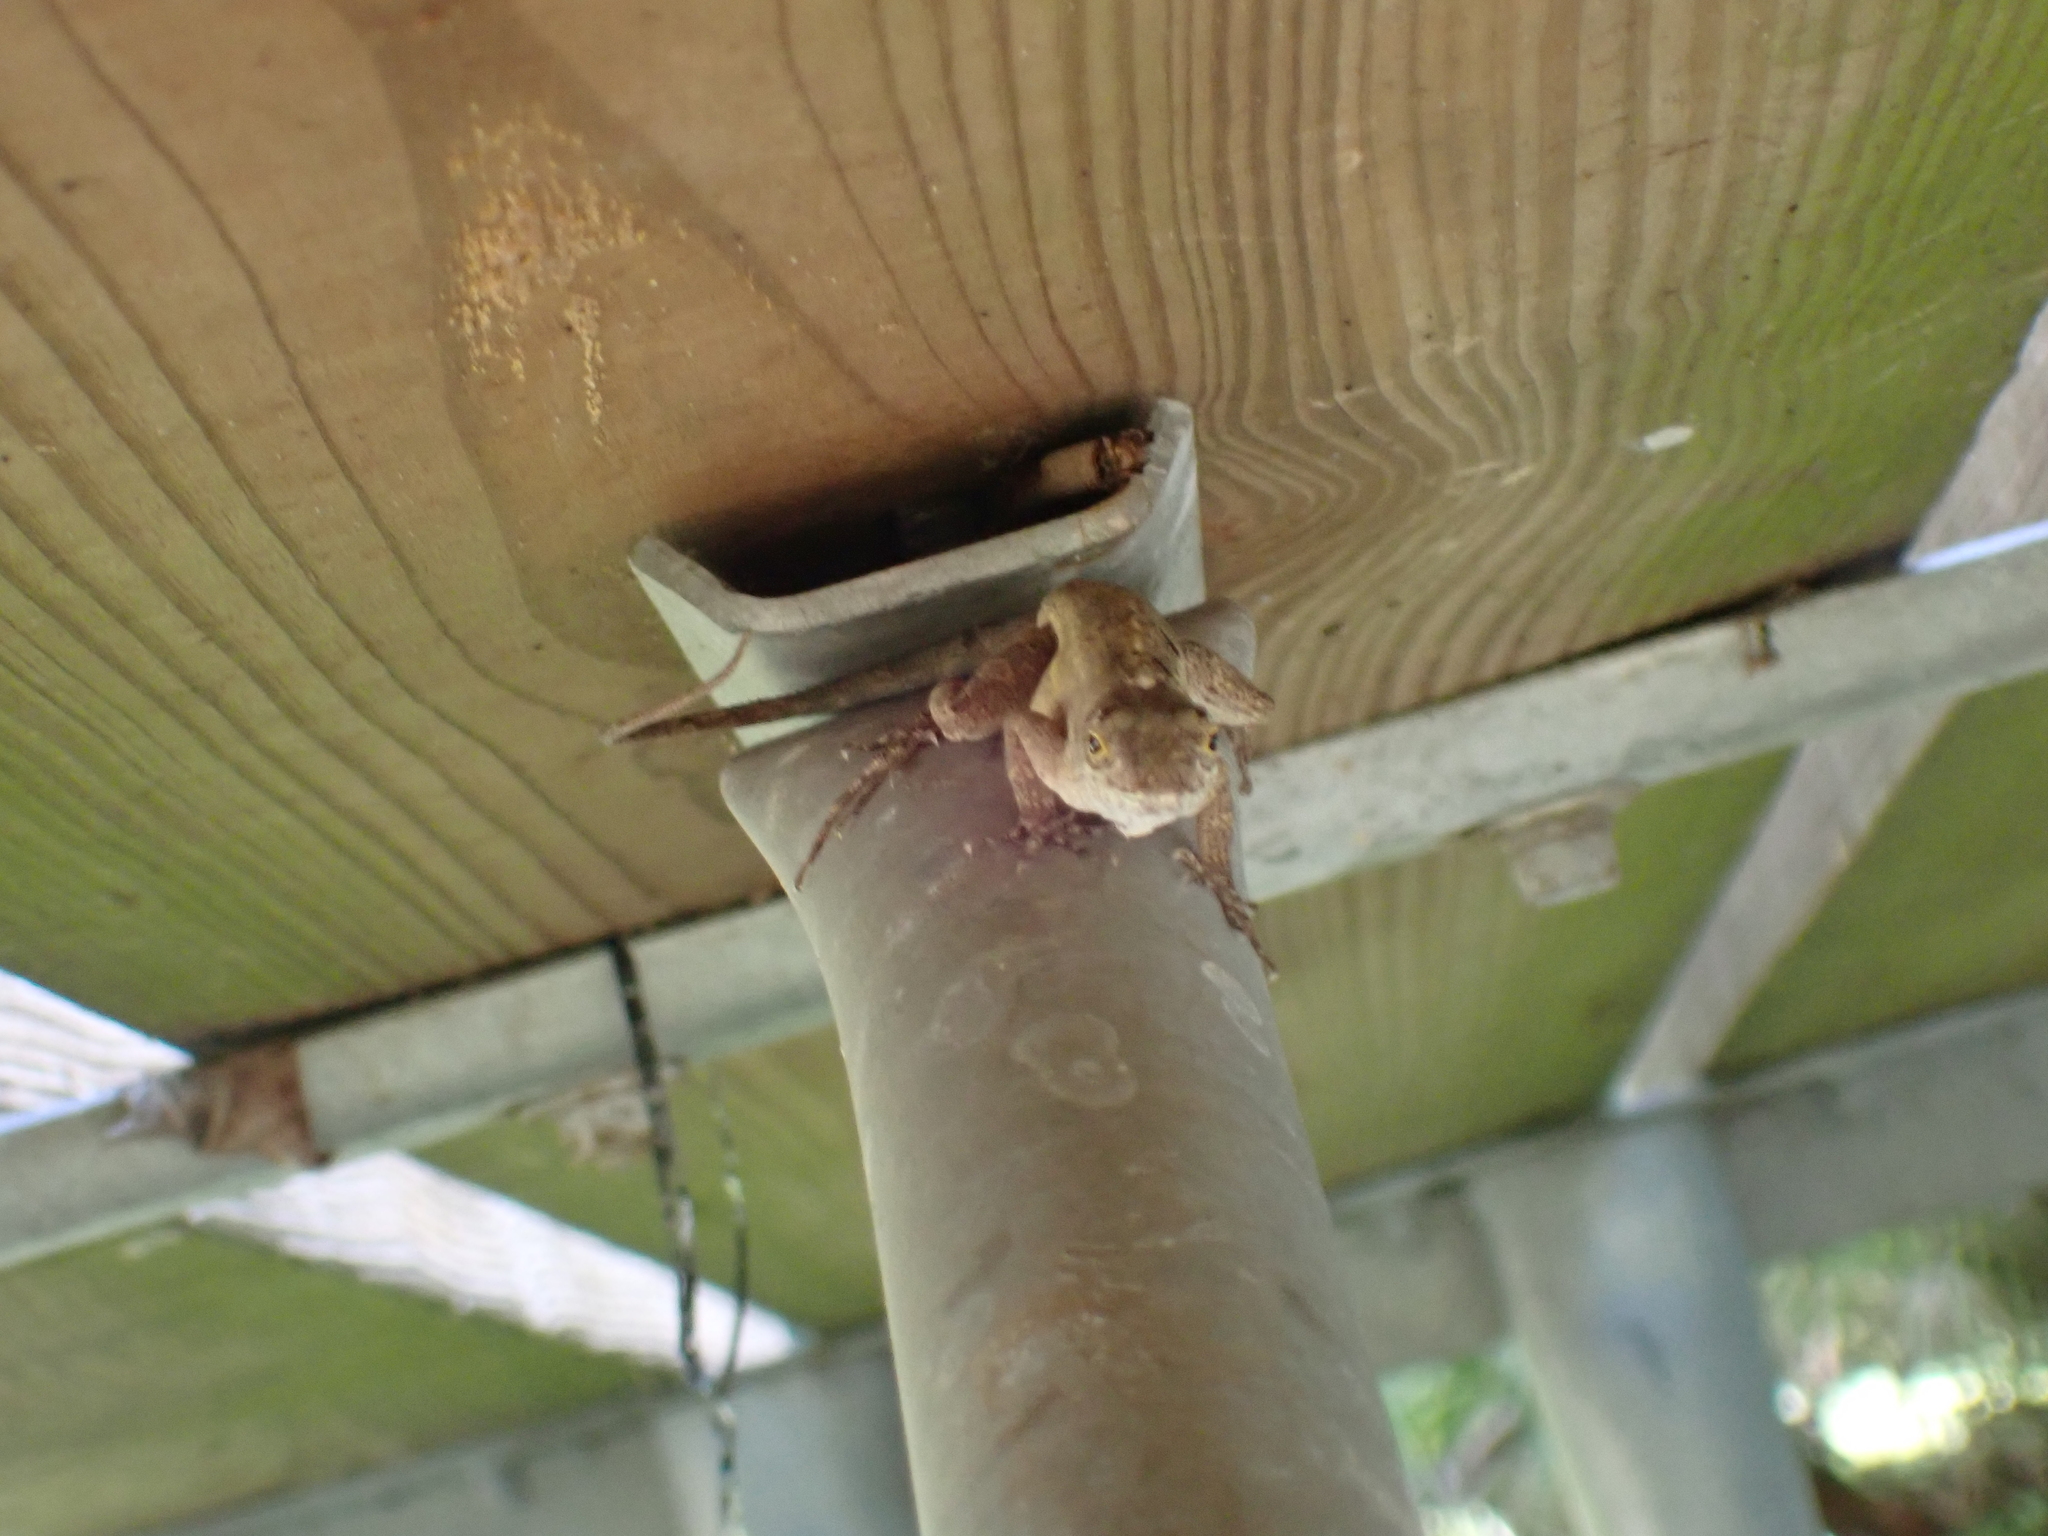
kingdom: Animalia
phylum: Chordata
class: Squamata
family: Dactyloidae
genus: Anolis
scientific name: Anolis sagrei
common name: Brown anole
